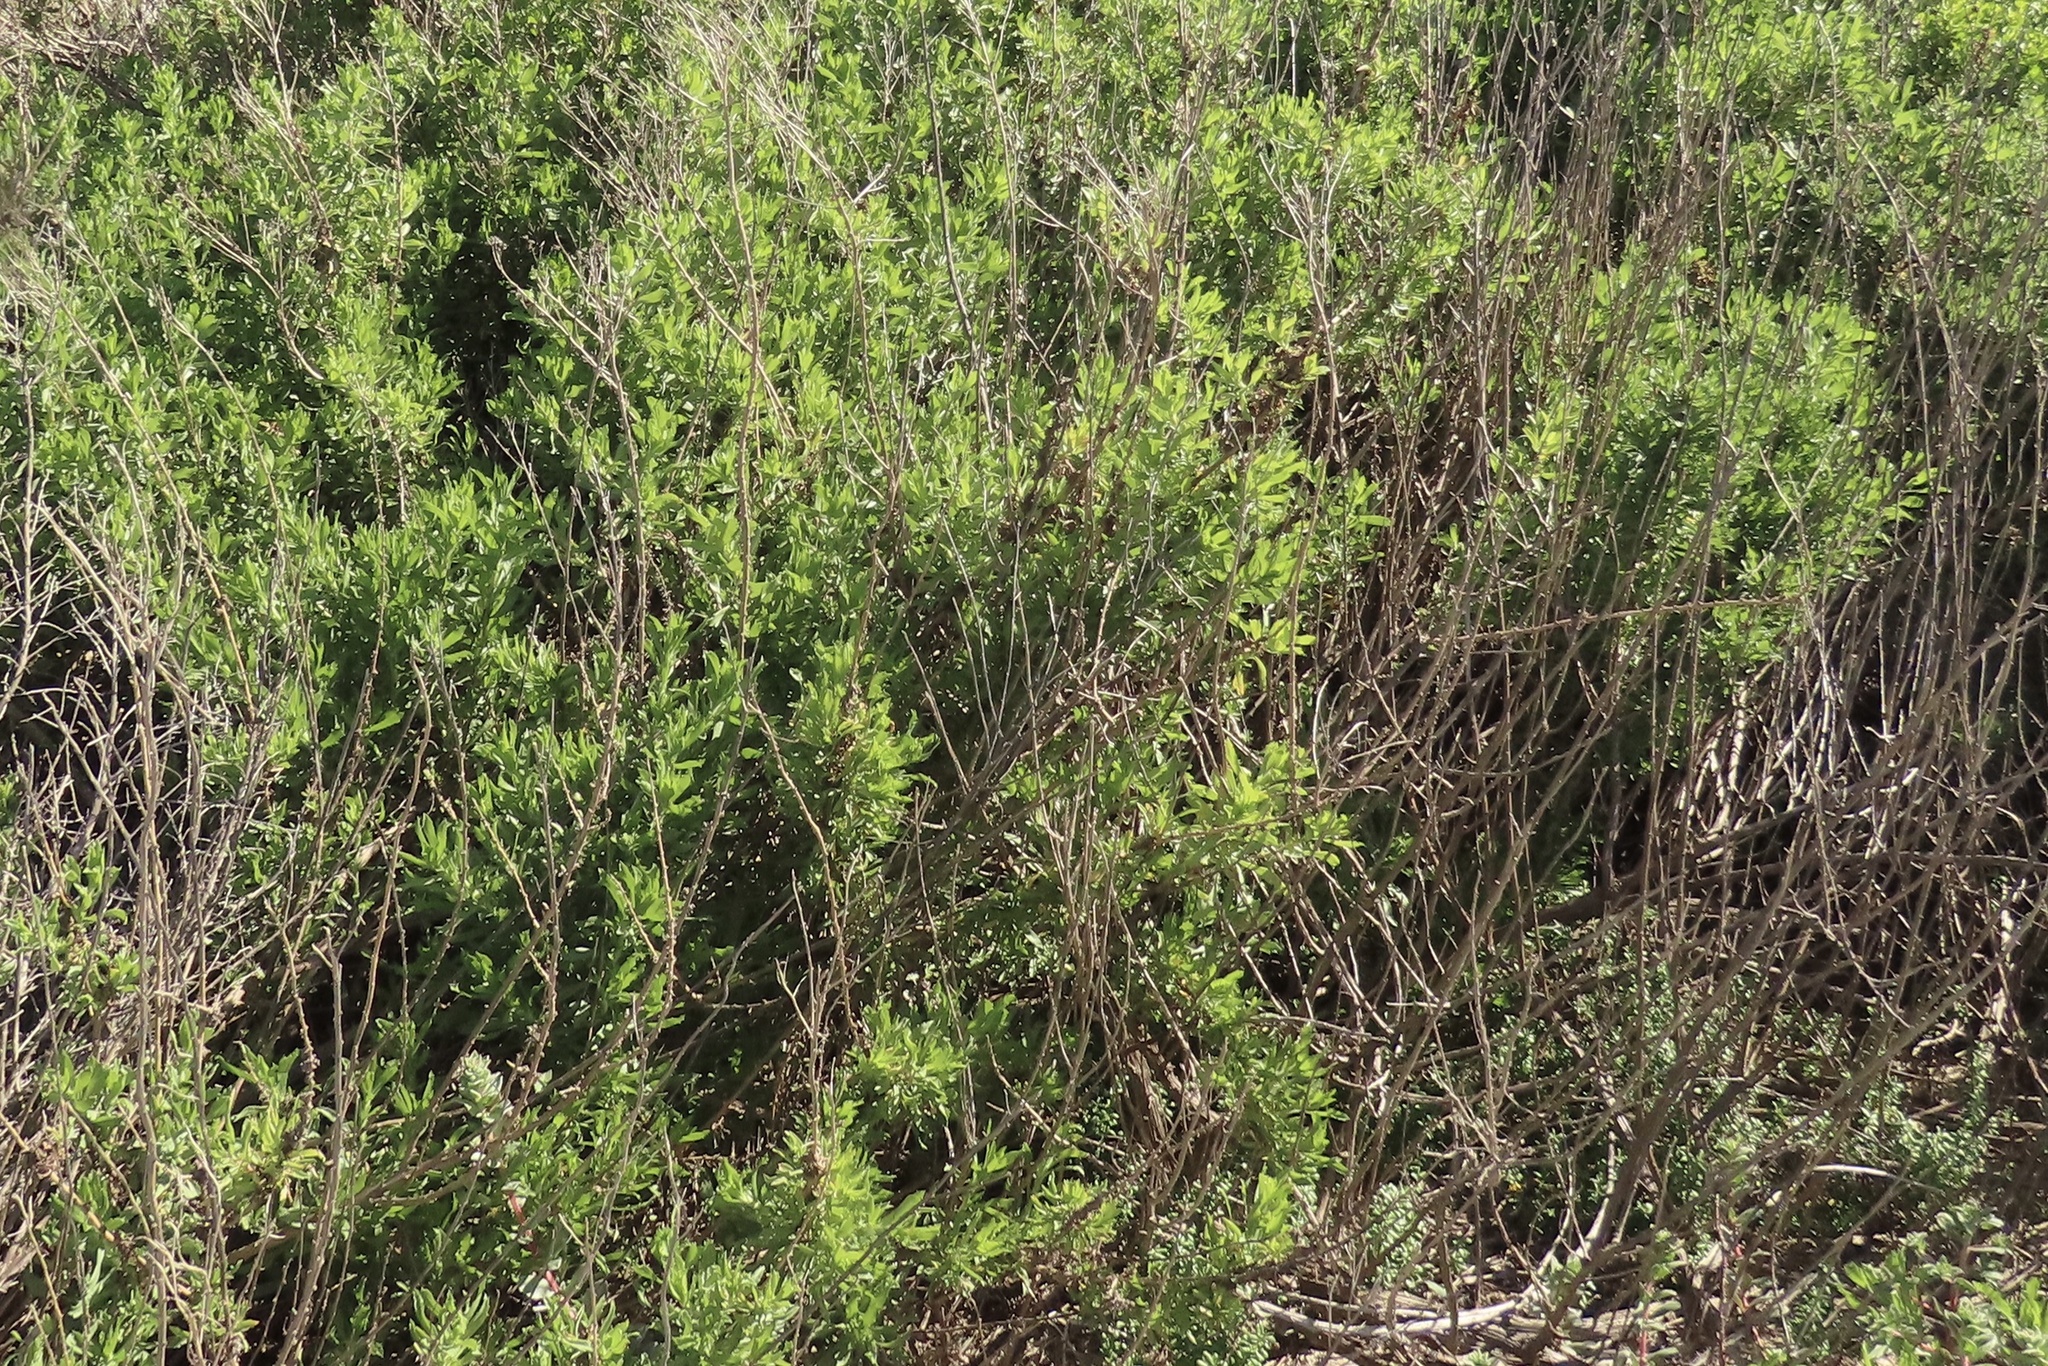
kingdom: Plantae
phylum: Tracheophyta
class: Magnoliopsida
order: Asterales
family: Asteraceae
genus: Isocoma
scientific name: Isocoma menziesii
